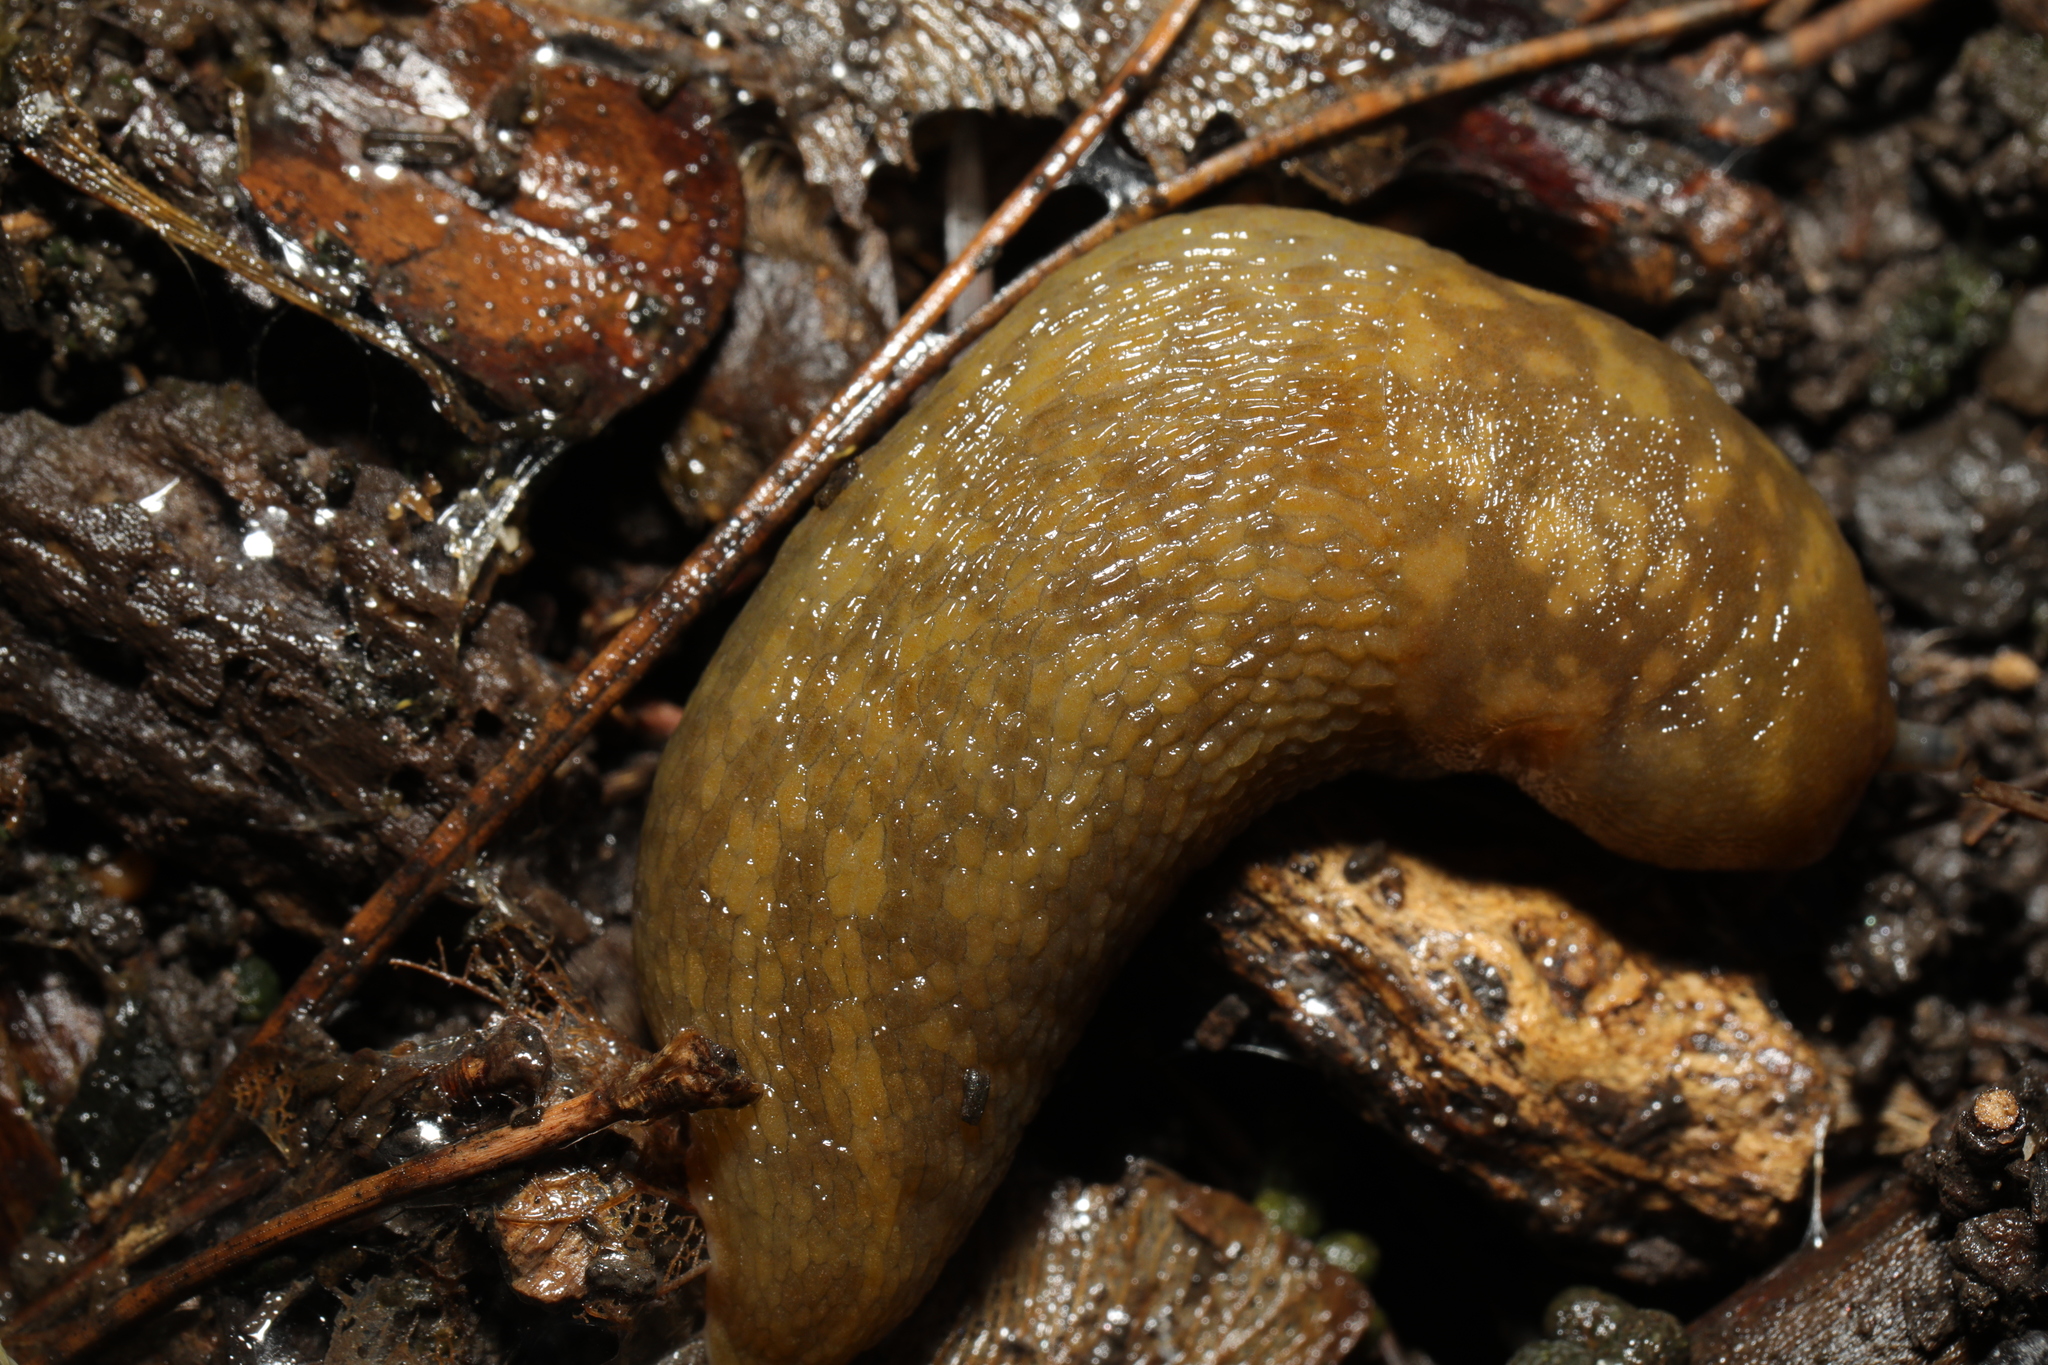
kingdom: Animalia
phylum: Mollusca
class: Gastropoda
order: Stylommatophora
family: Limacidae
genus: Limacus
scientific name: Limacus maculatus
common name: Irish yellow slug
